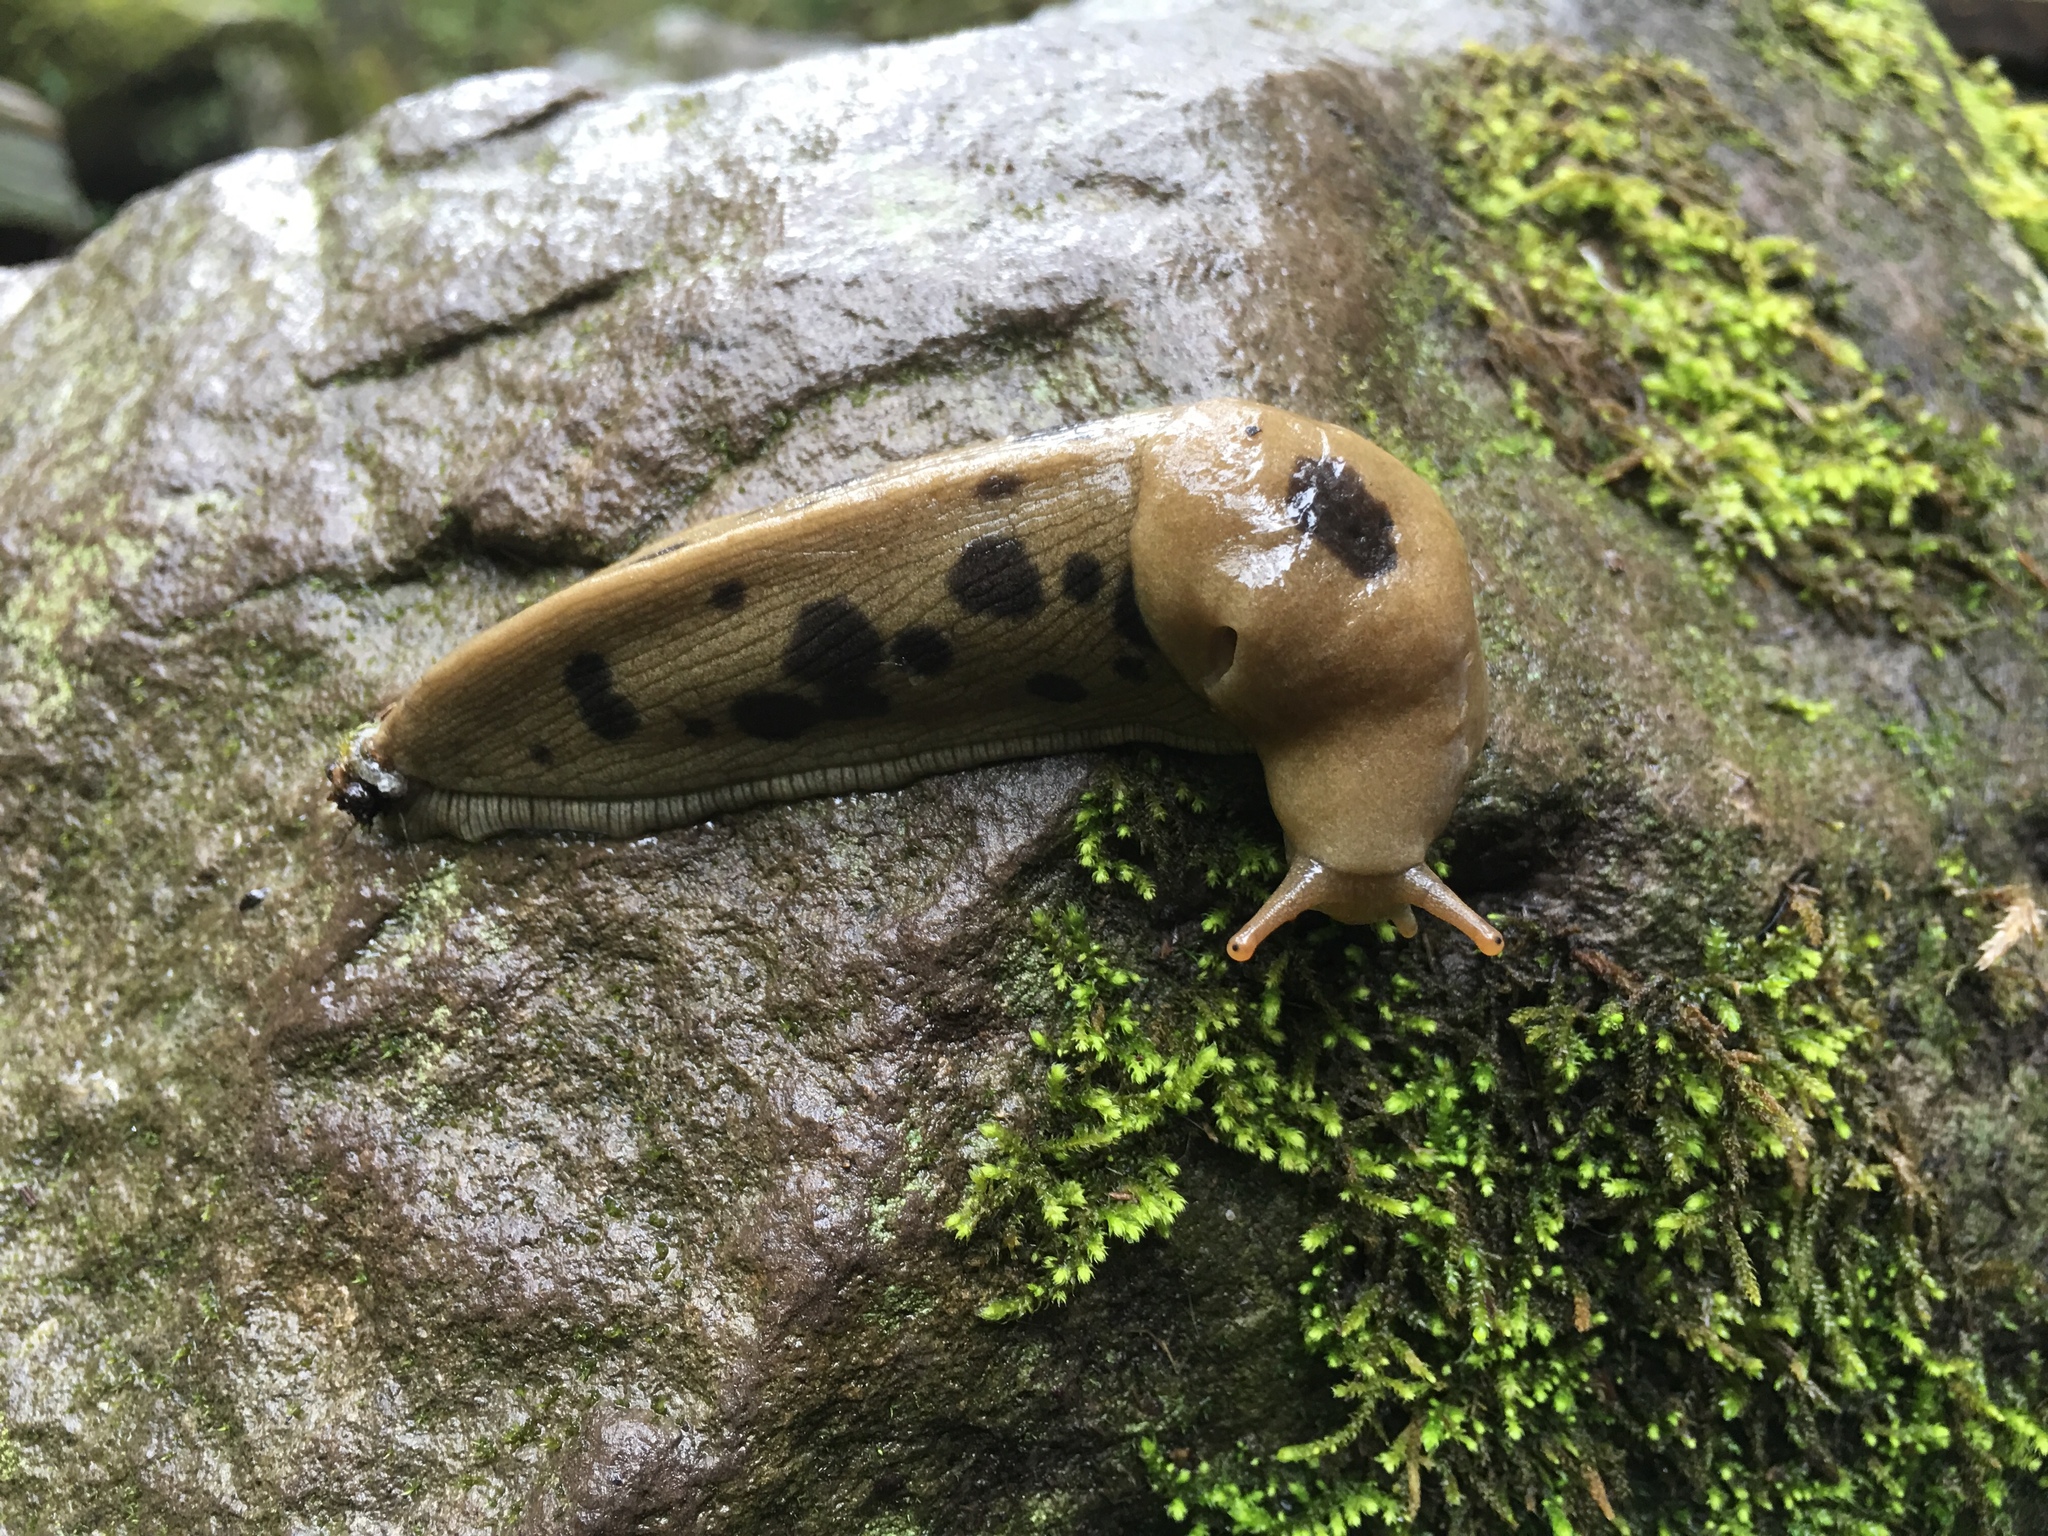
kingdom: Animalia
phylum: Mollusca
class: Gastropoda
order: Stylommatophora
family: Ariolimacidae
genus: Ariolimax
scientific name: Ariolimax columbianus
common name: Pacific banana slug
